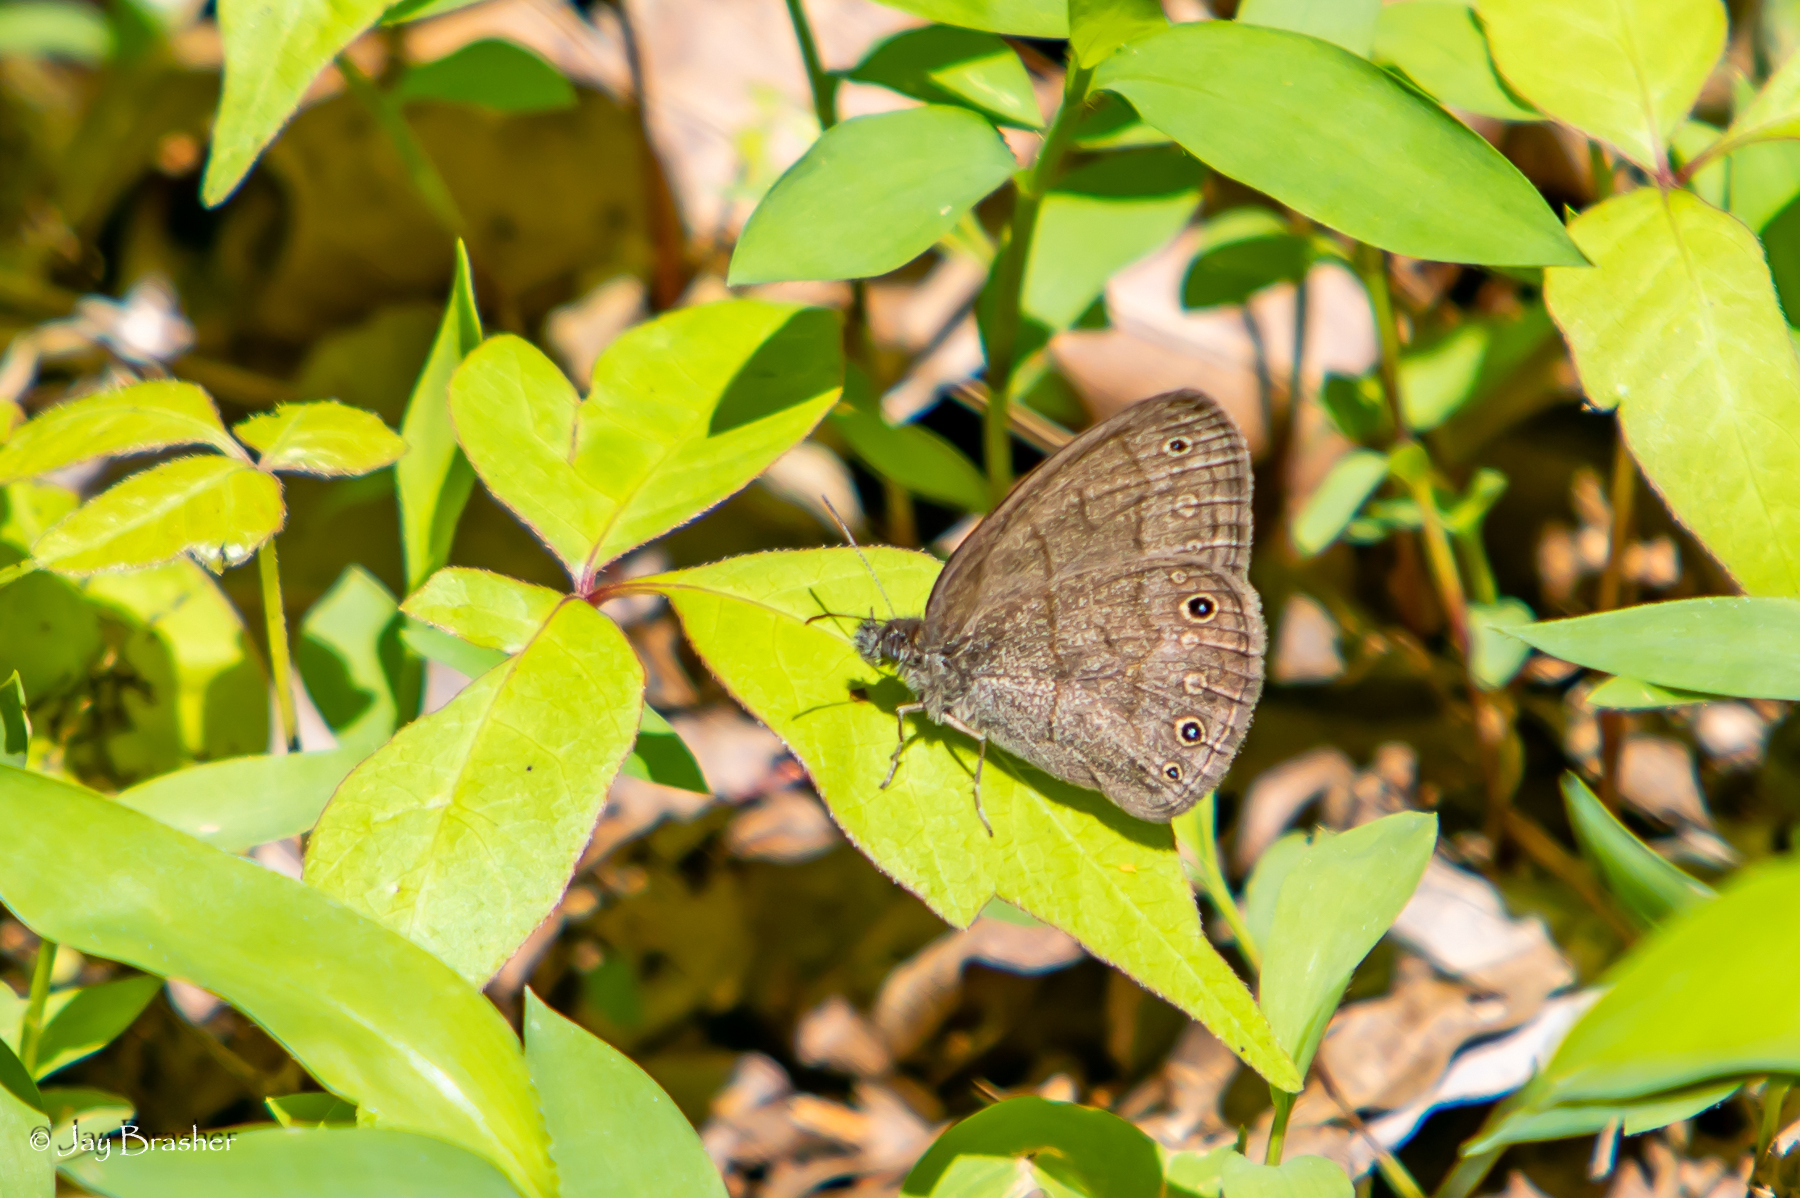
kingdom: Animalia
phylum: Arthropoda
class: Insecta
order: Lepidoptera
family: Nymphalidae
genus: Hermeuptychia
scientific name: Hermeuptychia hermes
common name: Hermes satyr
